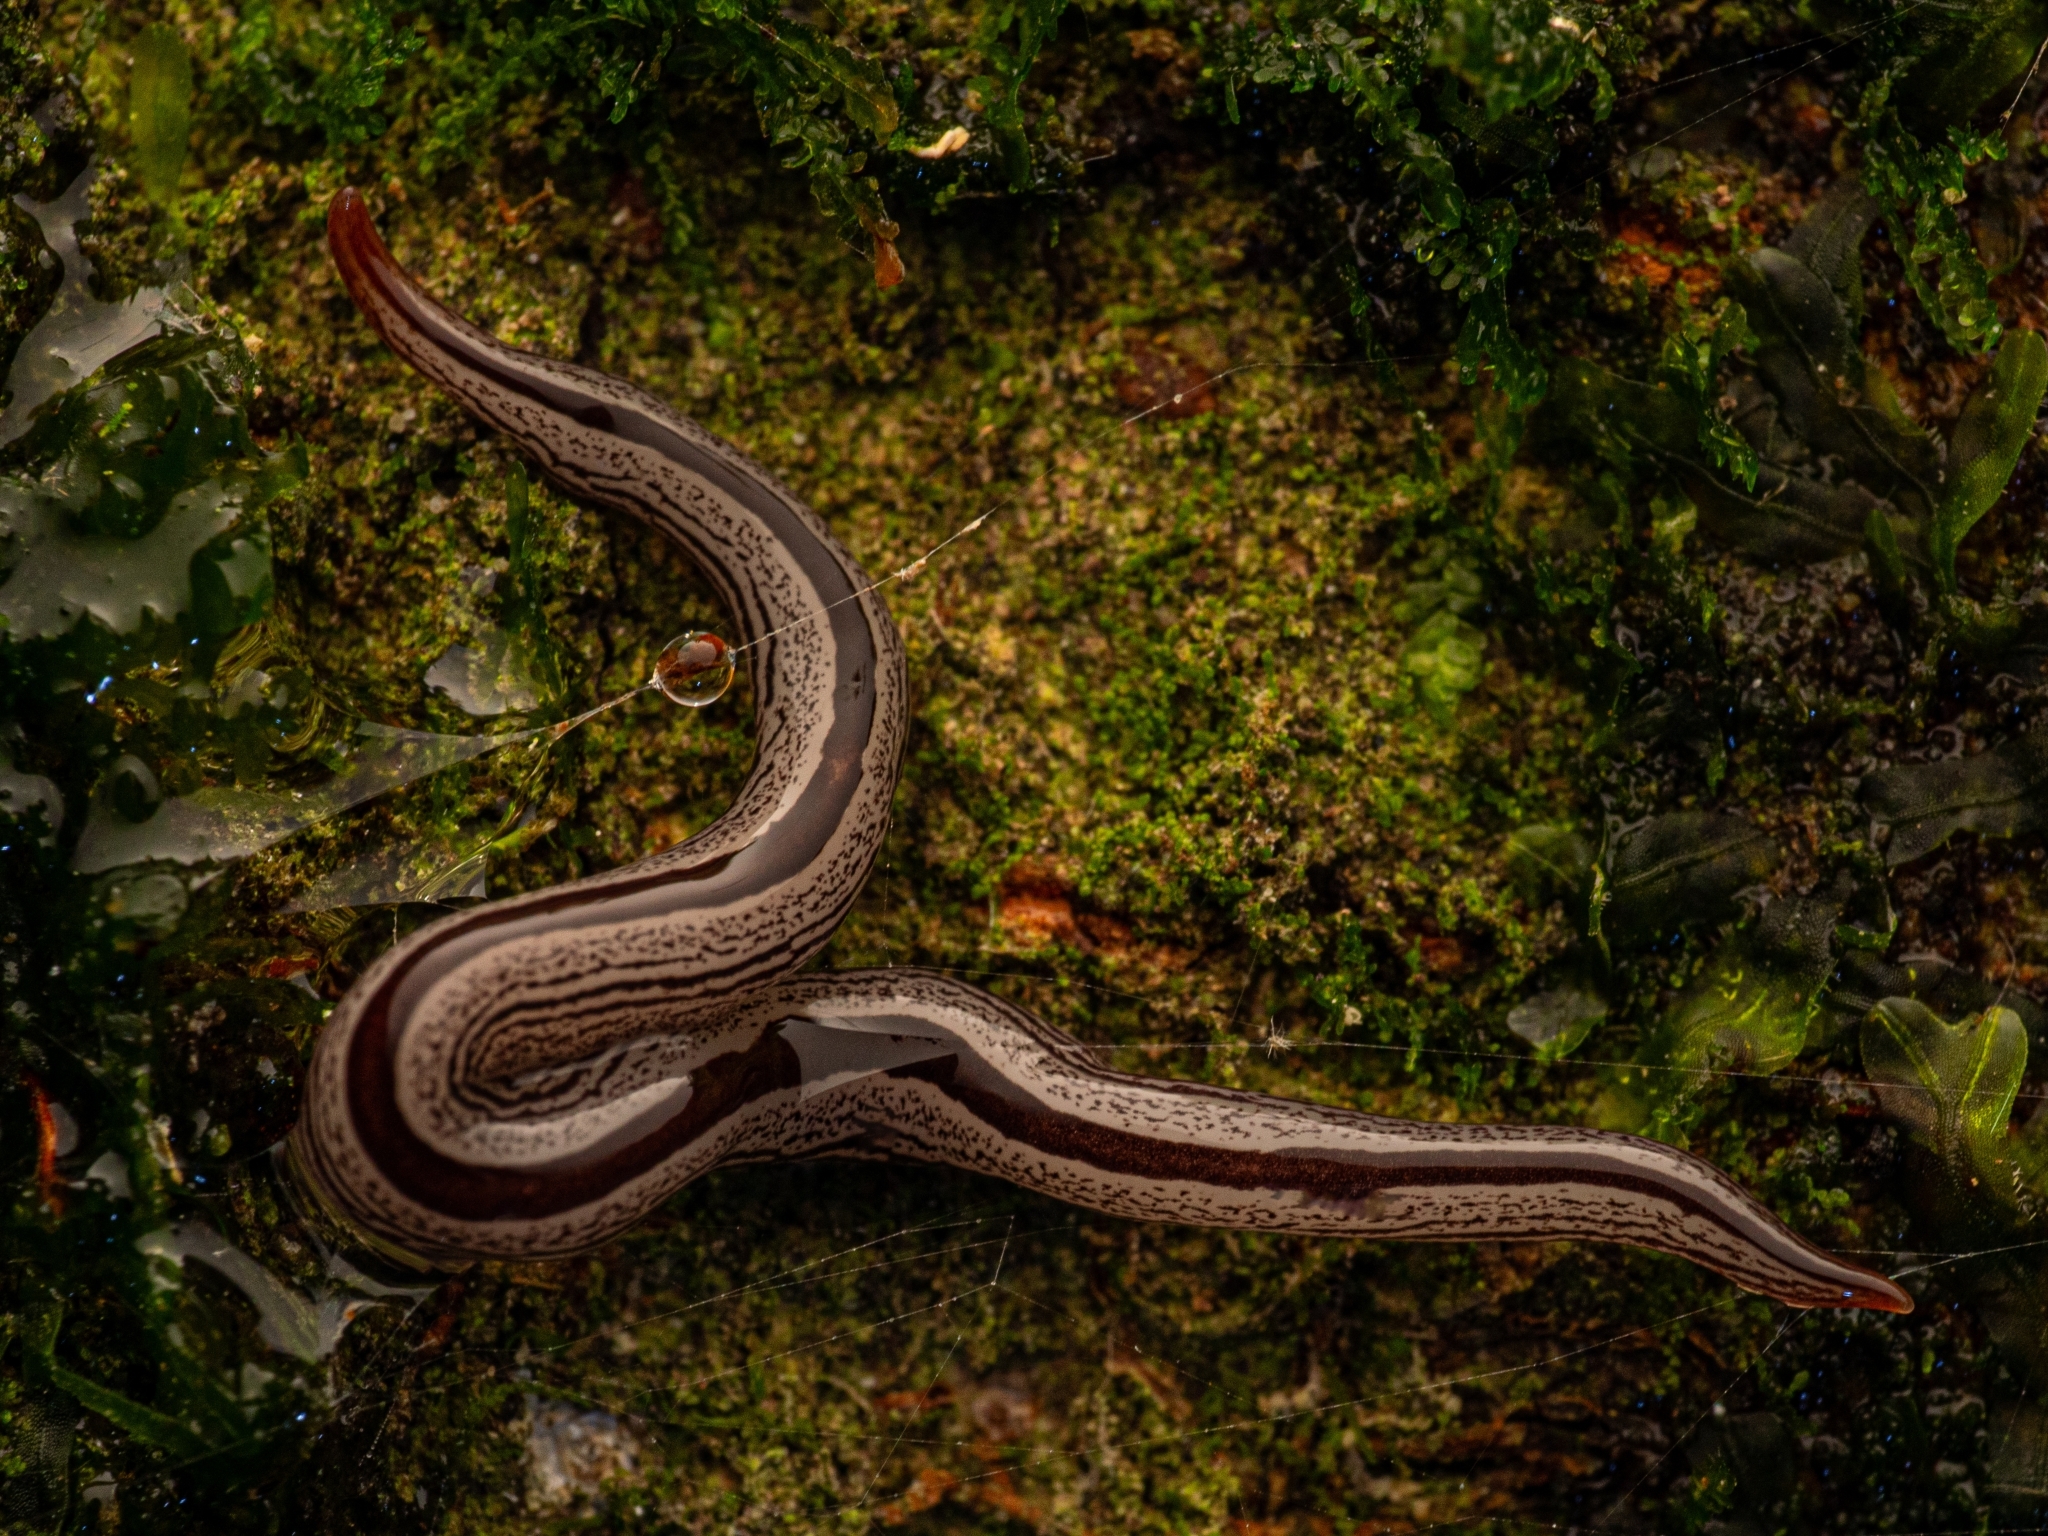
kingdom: Animalia
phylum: Platyhelminthes
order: Tricladida
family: Geoplanidae
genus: Artioposthia
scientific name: Artioposthia exulans
